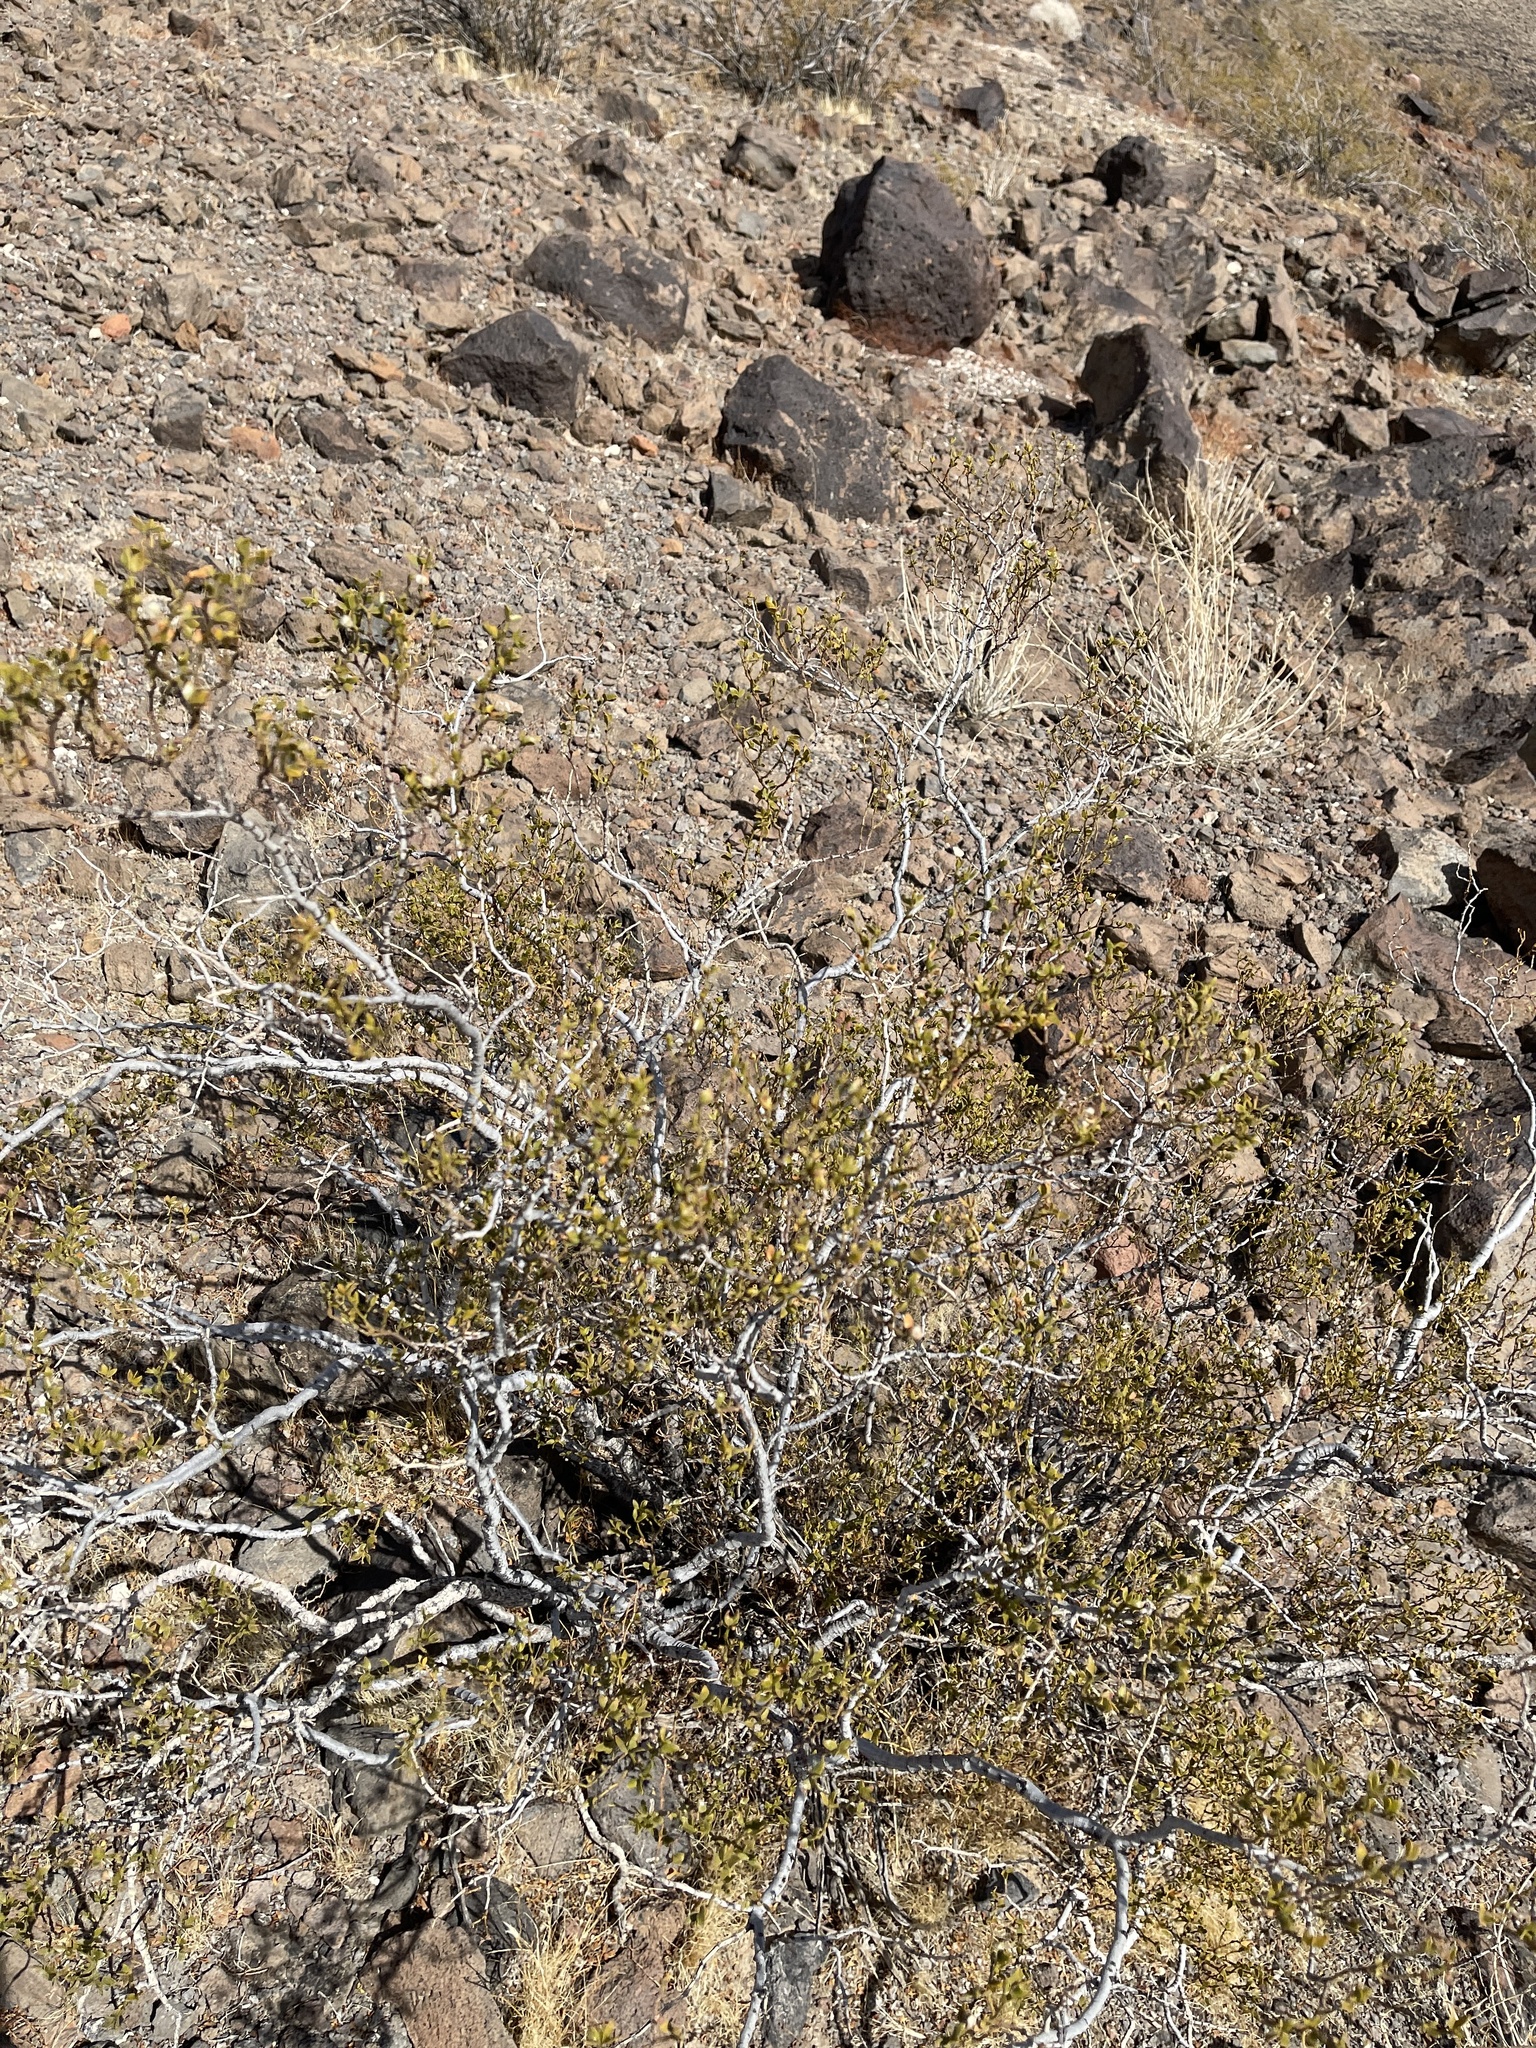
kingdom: Plantae
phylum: Tracheophyta
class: Magnoliopsida
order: Zygophyllales
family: Zygophyllaceae
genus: Larrea
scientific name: Larrea tridentata
